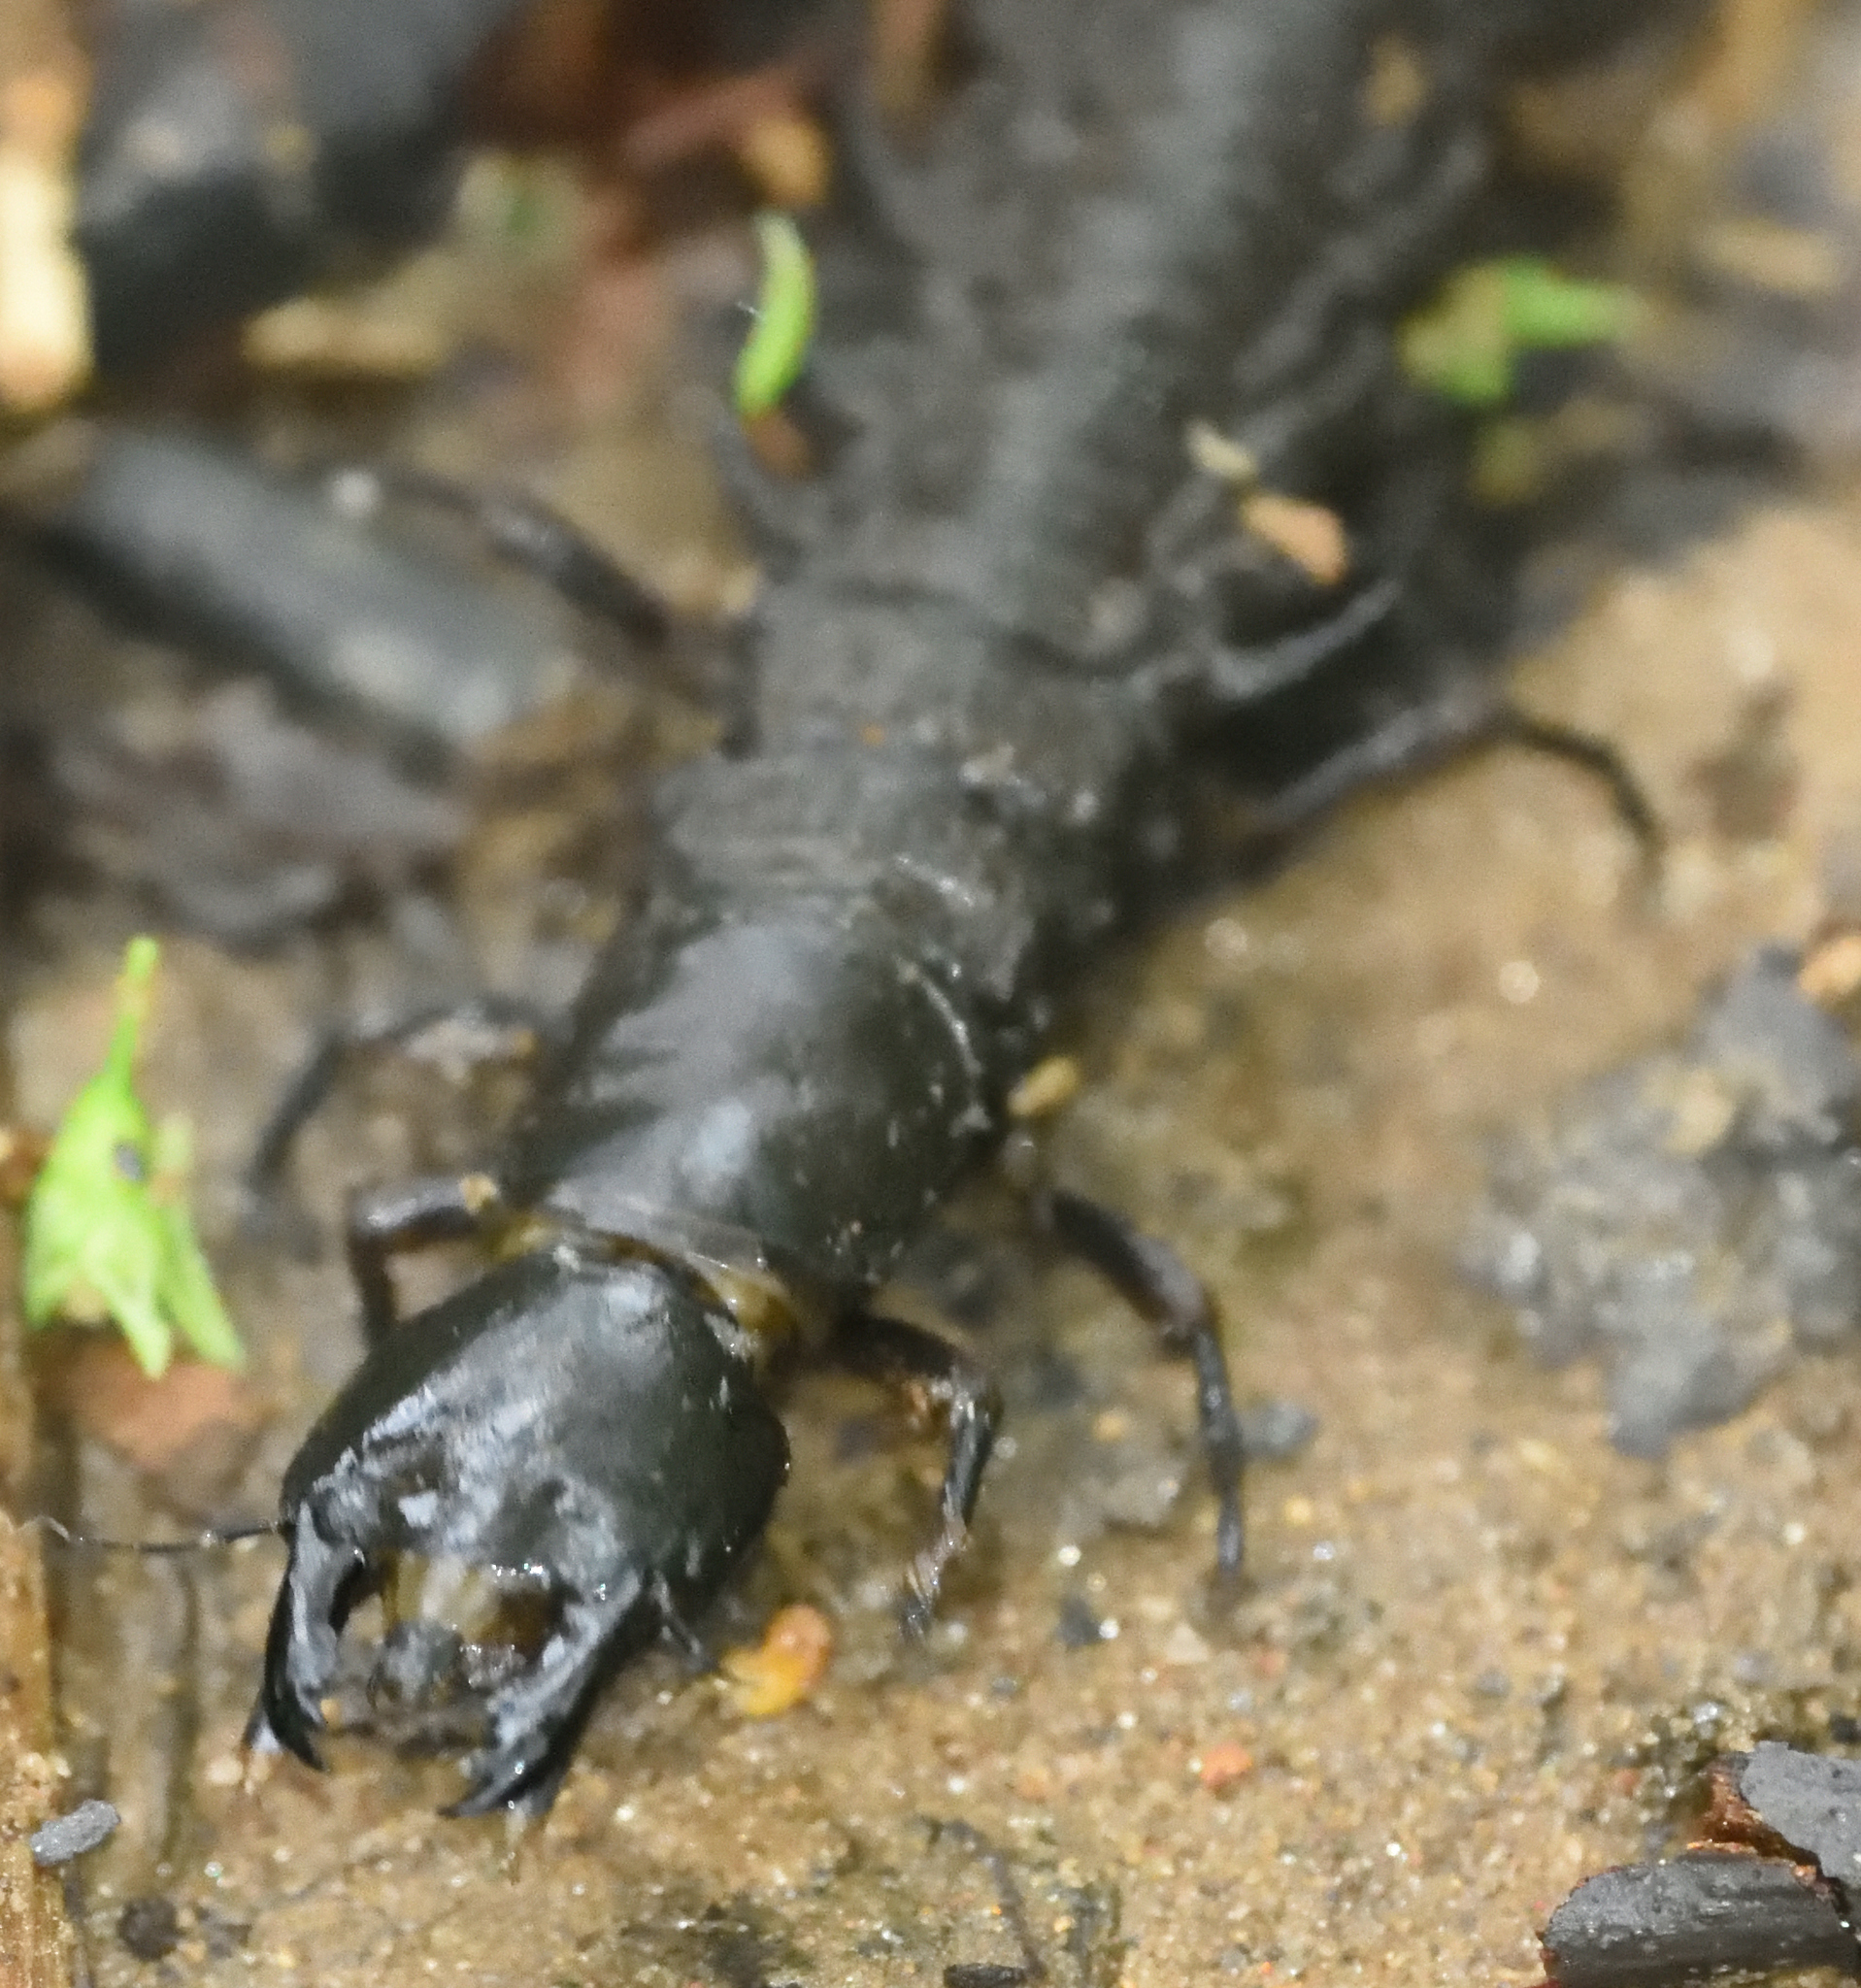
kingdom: Animalia
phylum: Arthropoda
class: Insecta
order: Megaloptera
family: Corydalidae
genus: Corydalus
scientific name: Corydalus cornutus
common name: Dobsonfly
